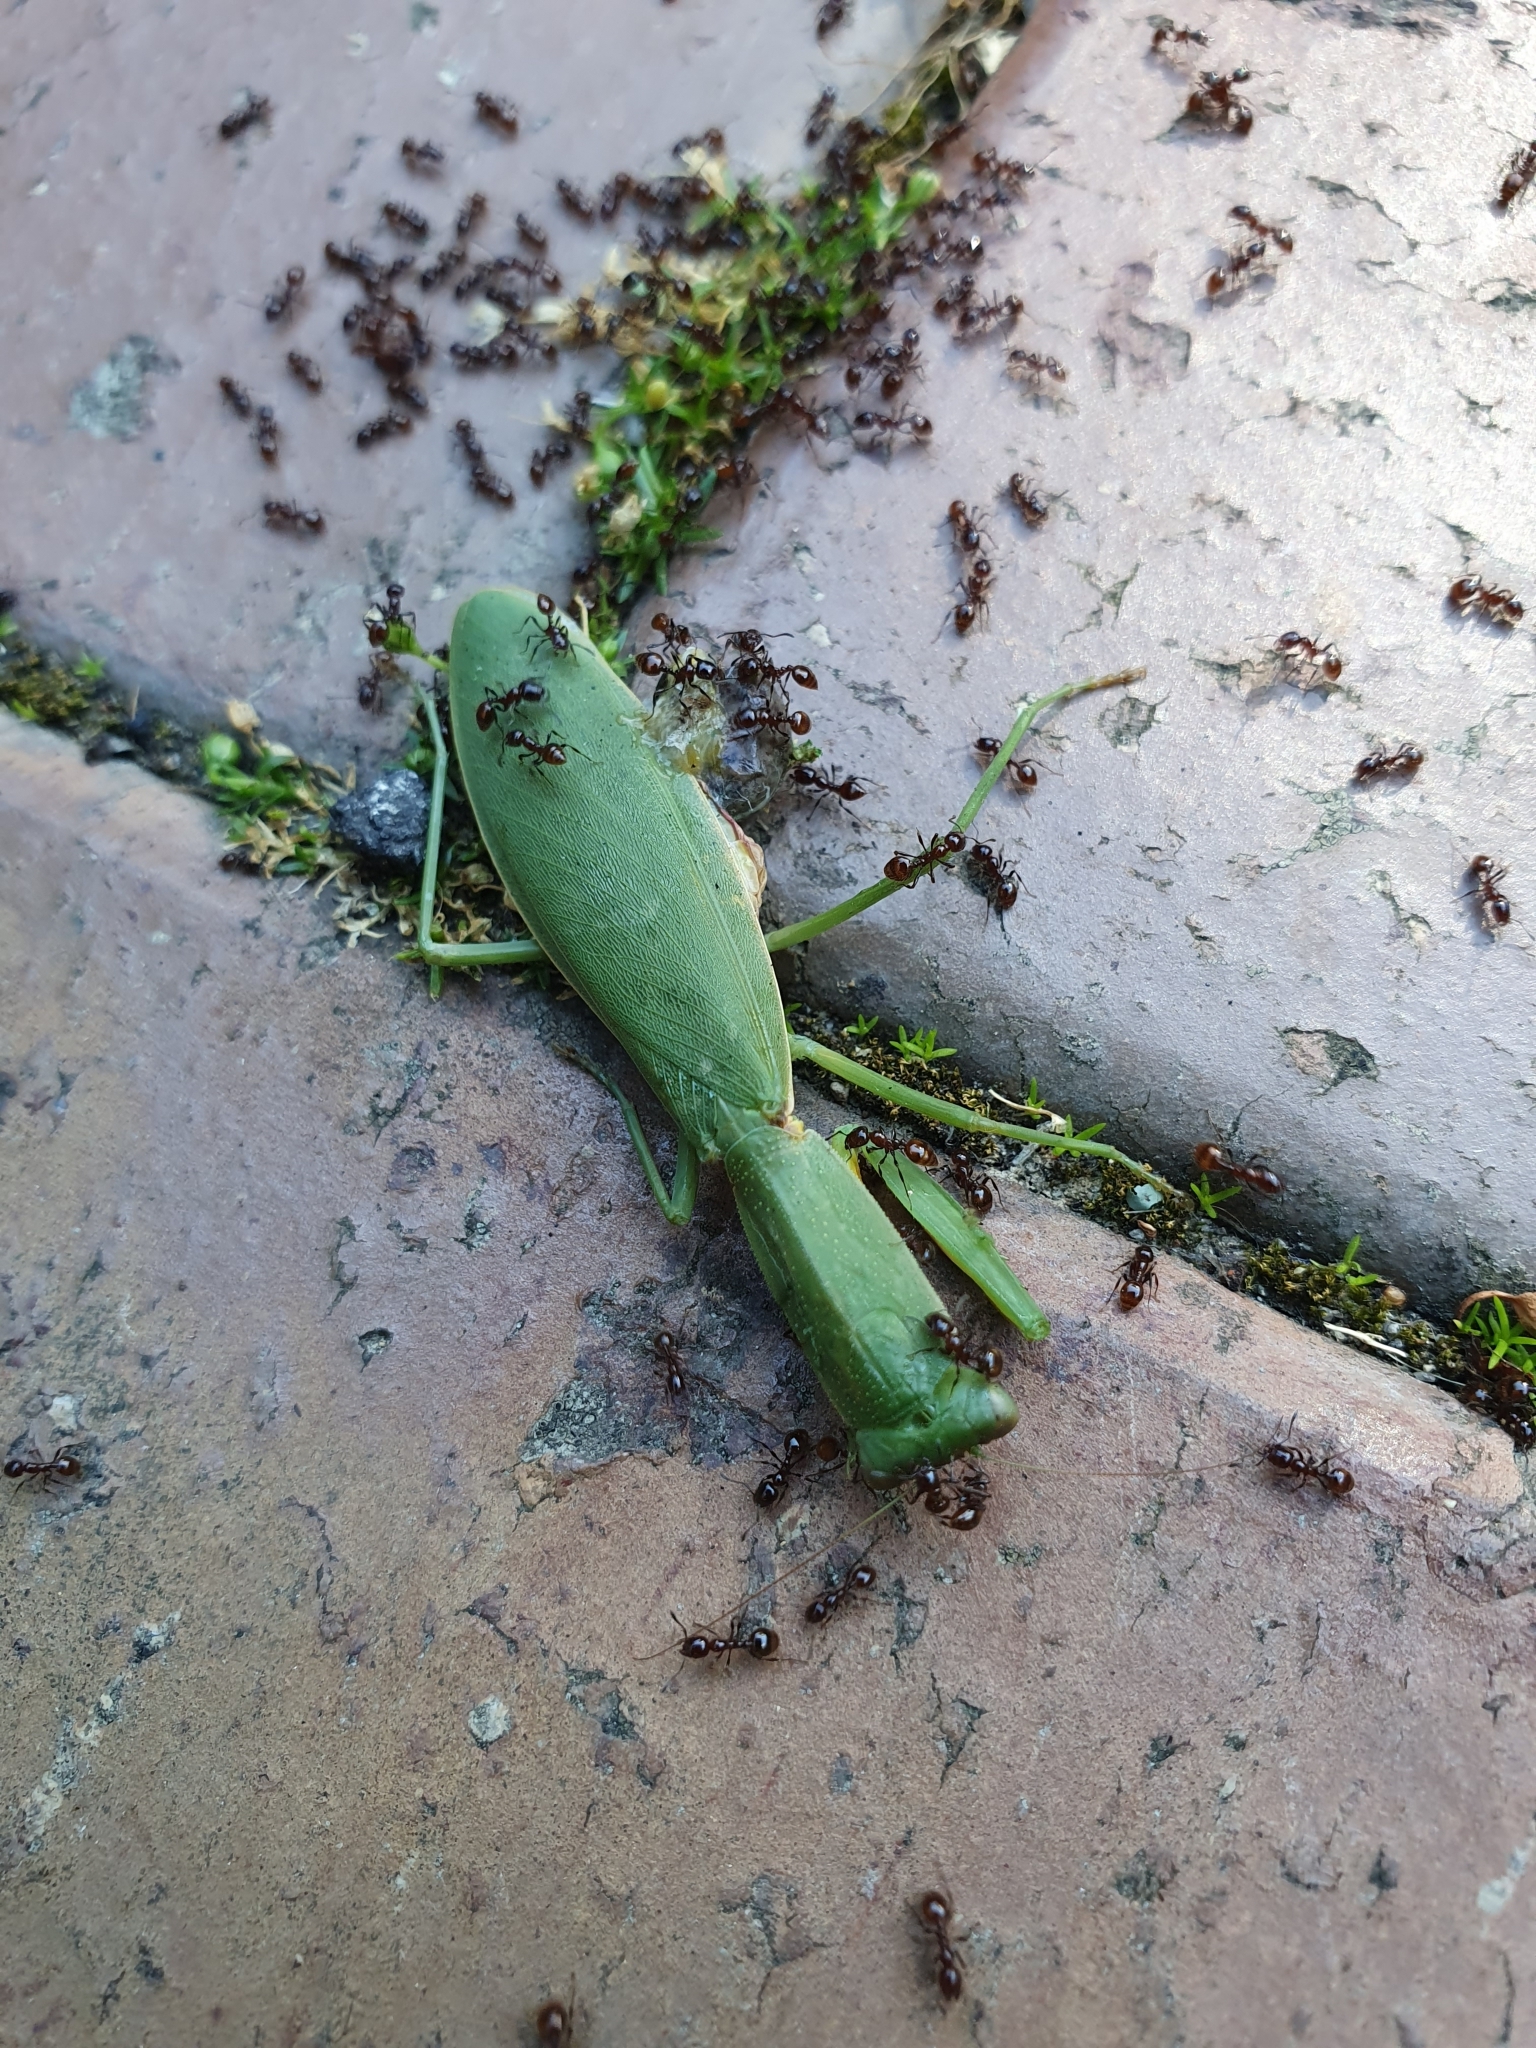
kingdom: Animalia
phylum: Arthropoda
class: Insecta
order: Mantodea
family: Mantidae
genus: Orthodera
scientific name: Orthodera novaezealandiae
